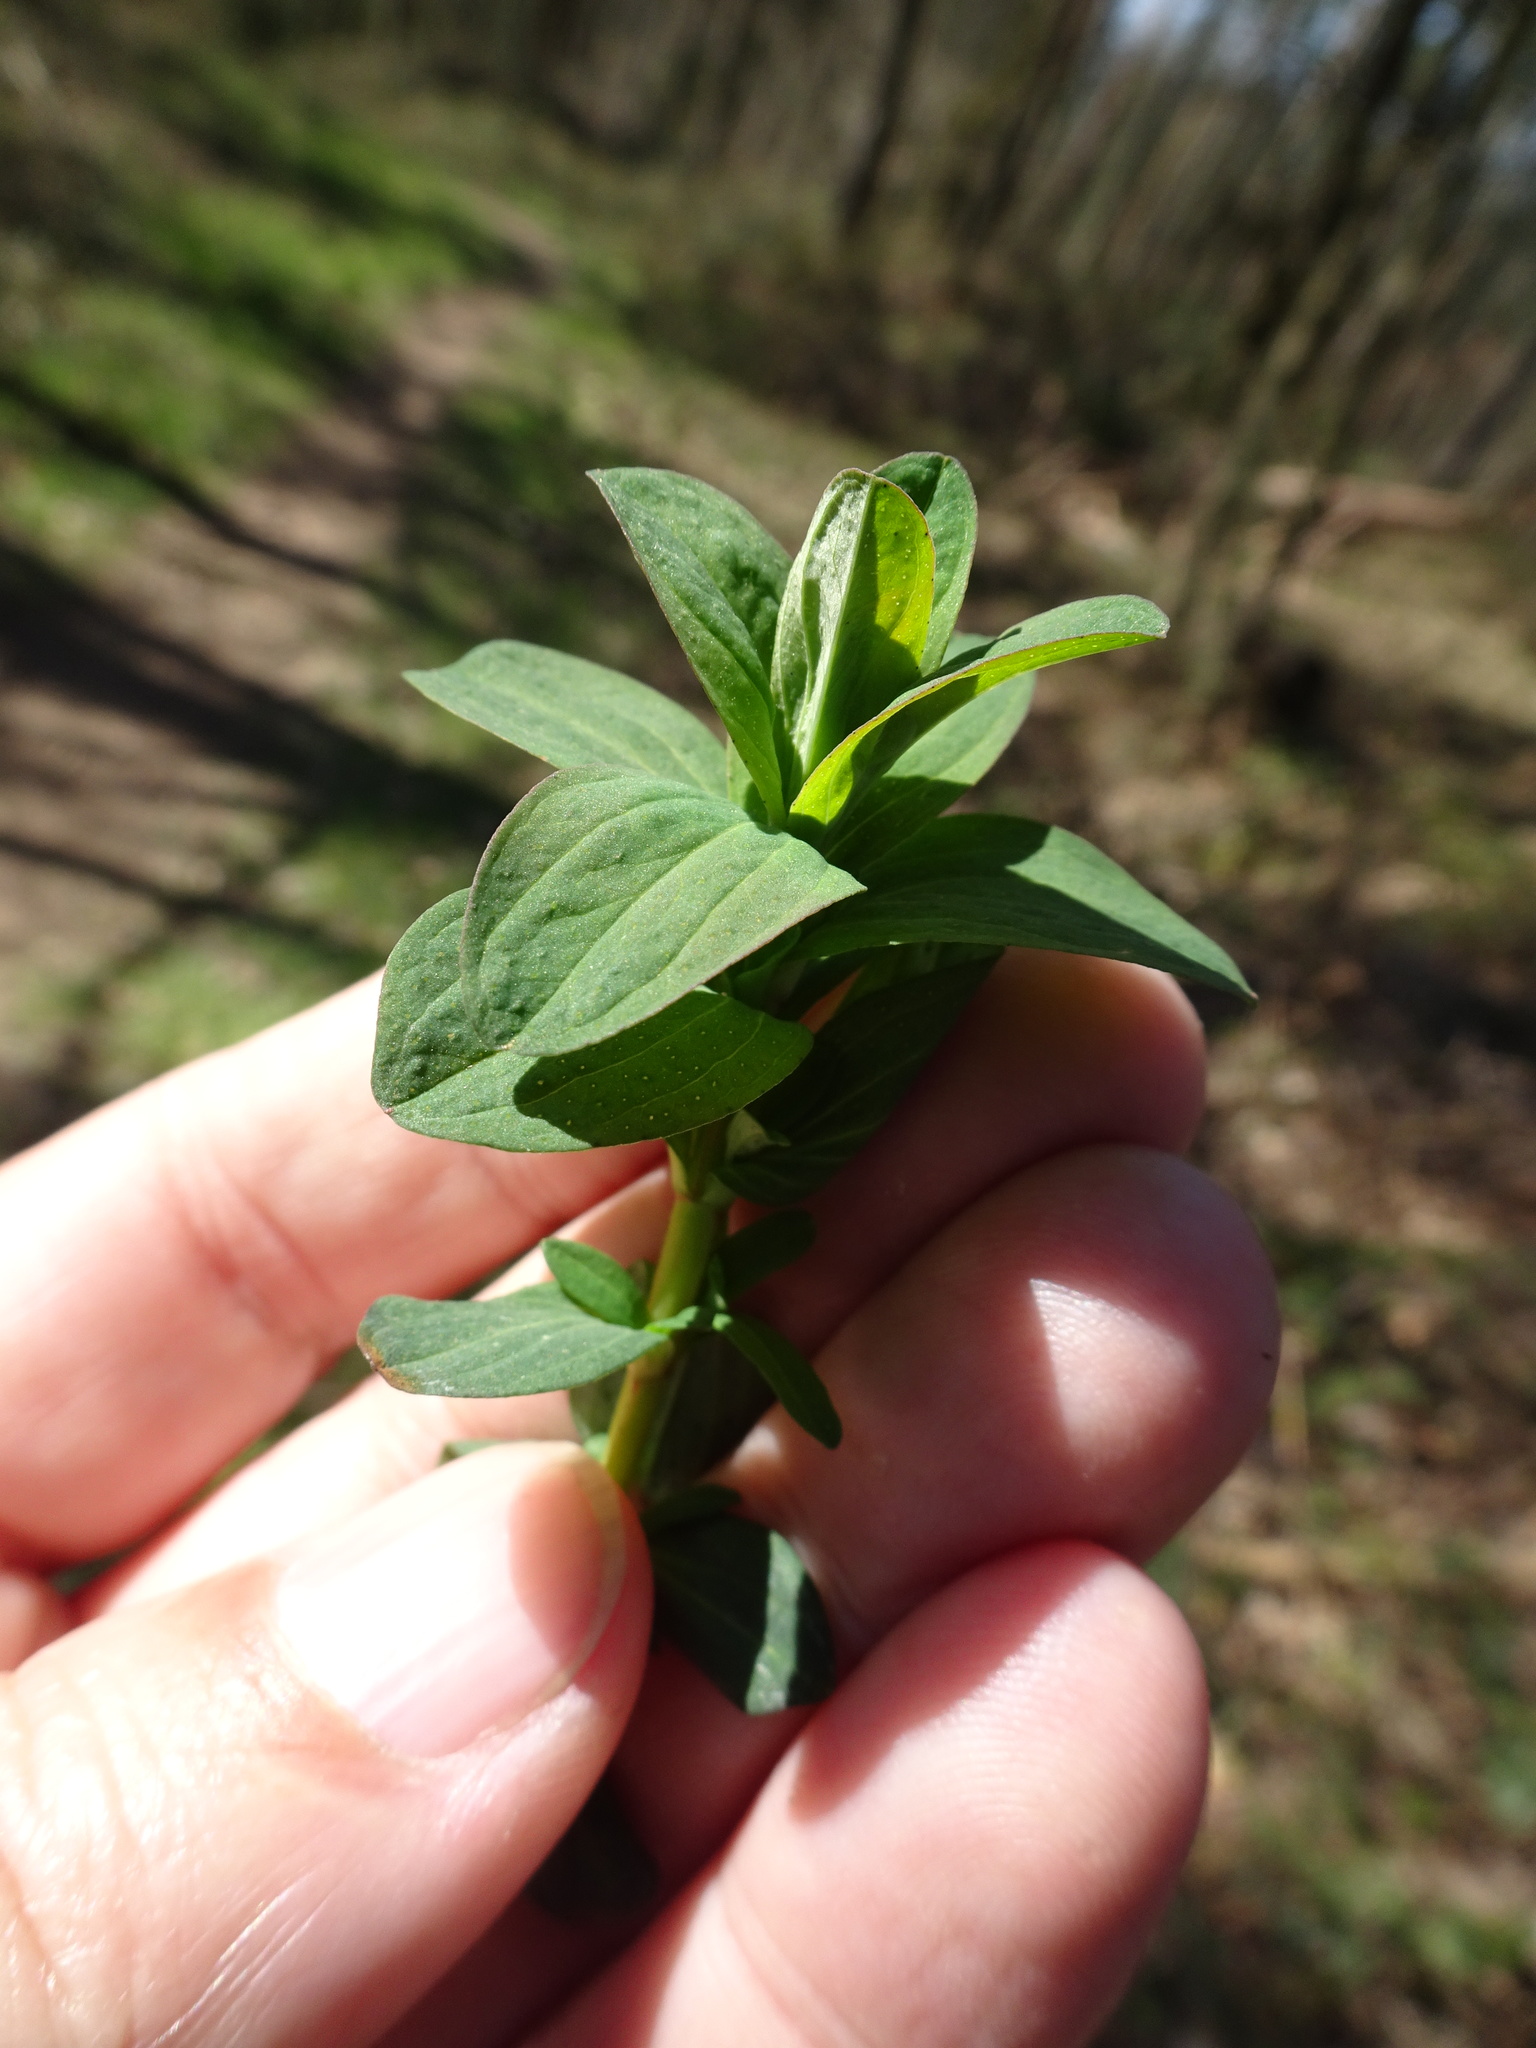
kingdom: Plantae
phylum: Tracheophyta
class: Magnoliopsida
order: Malpighiales
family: Hypericaceae
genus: Hypericum
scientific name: Hypericum perforatum
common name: Common st. johnswort
